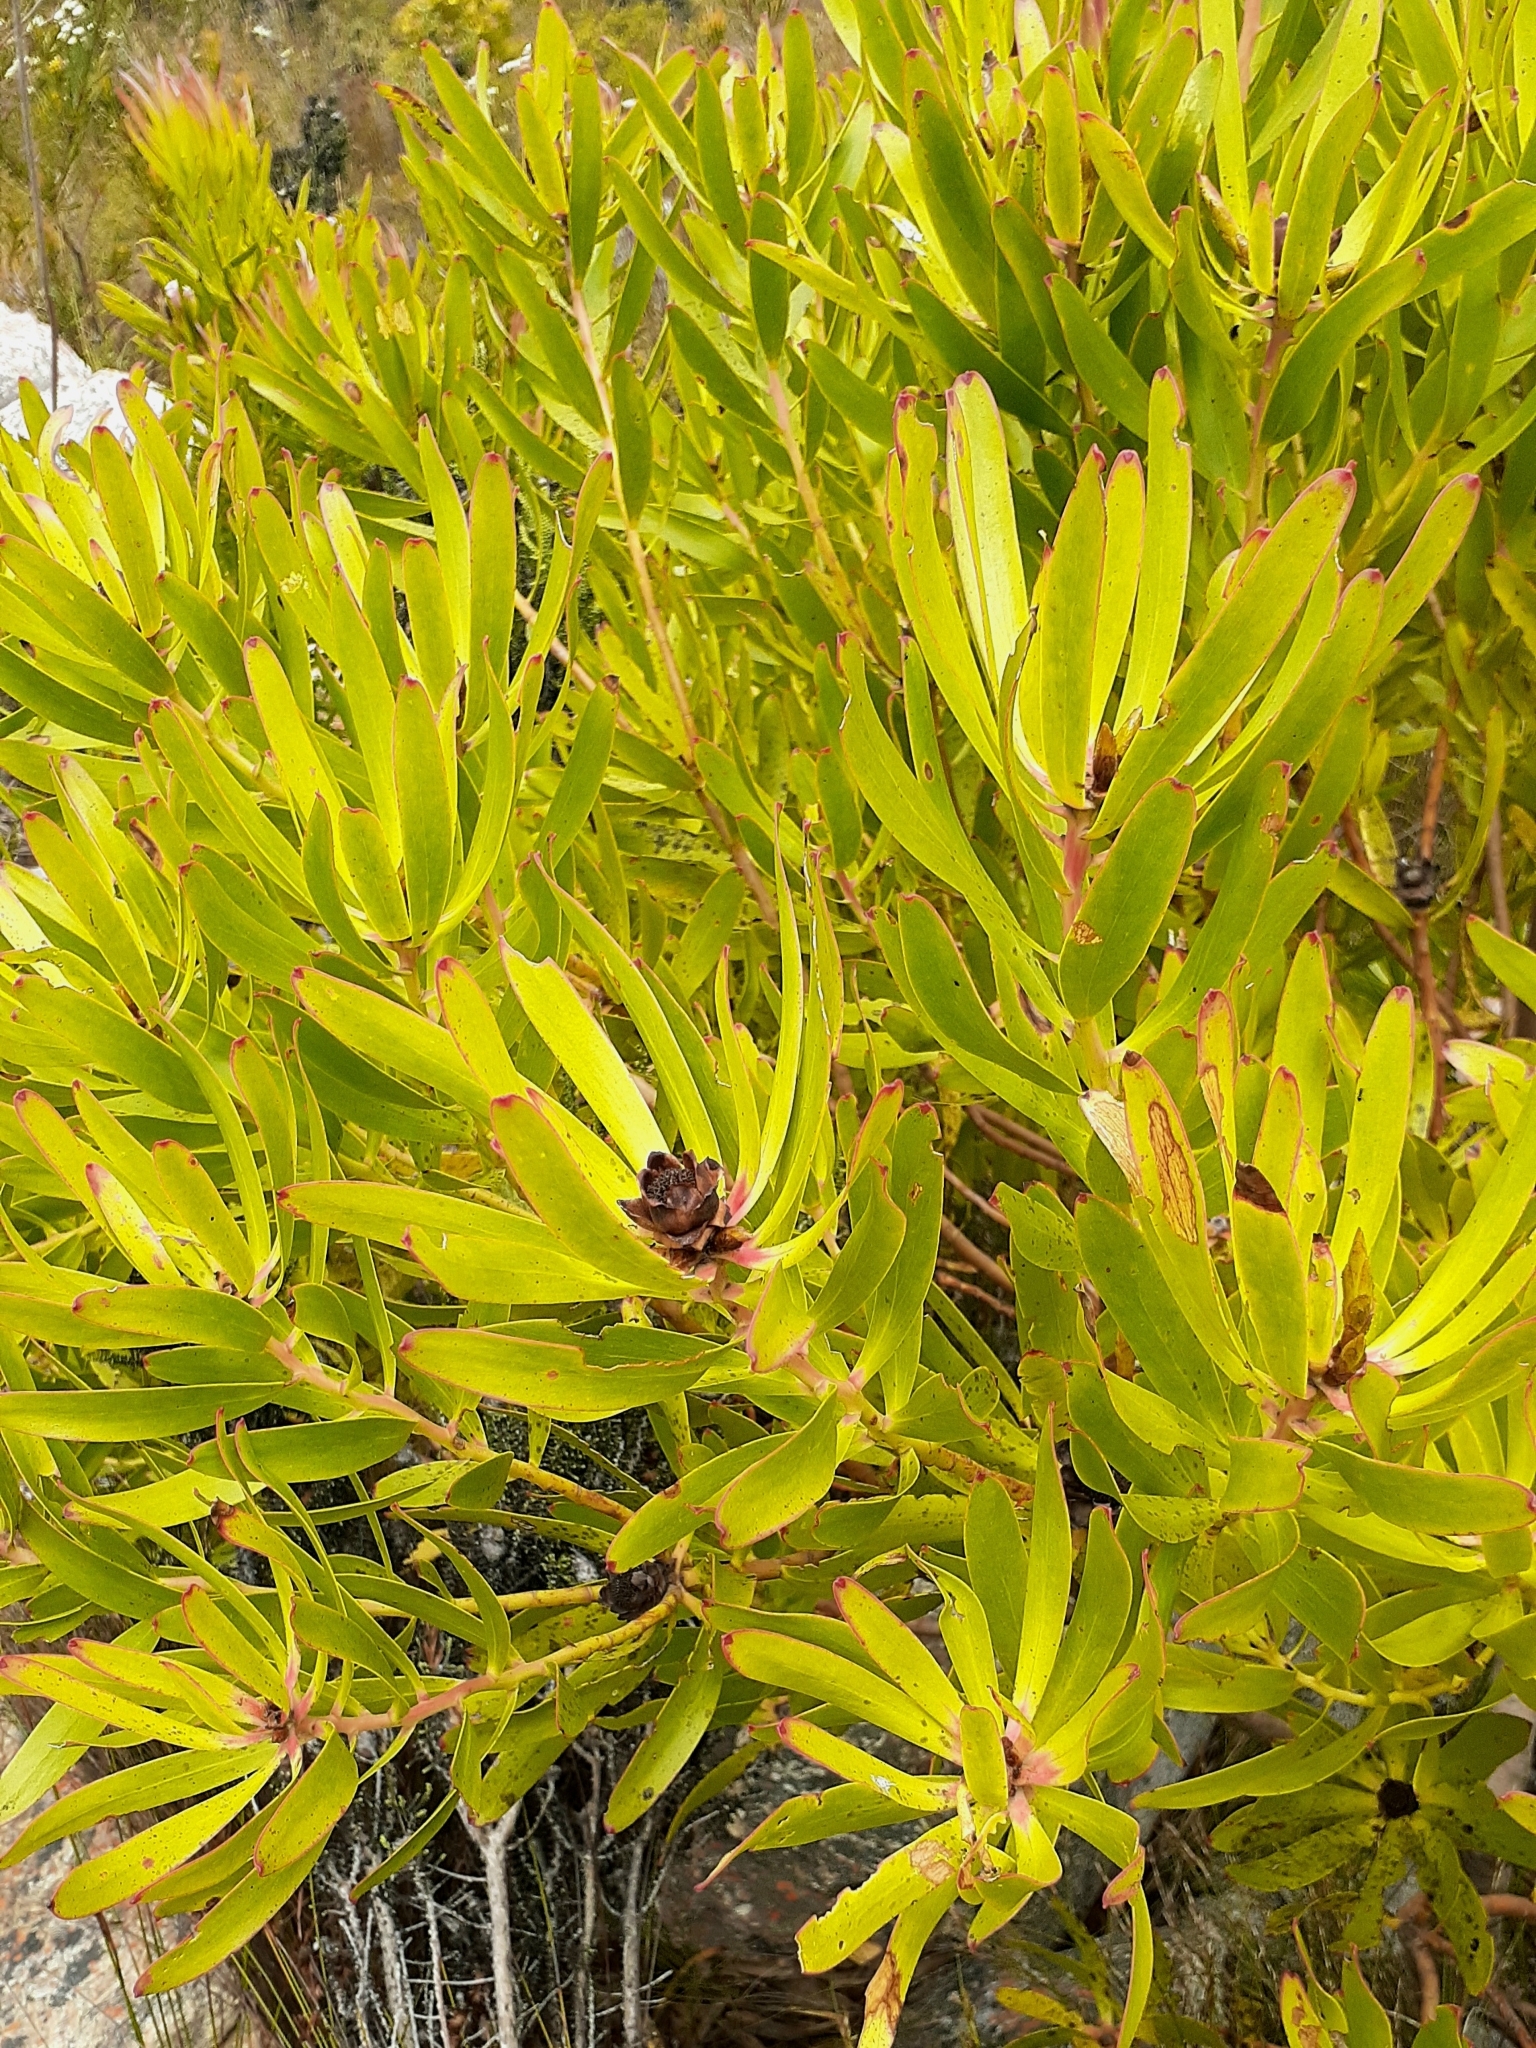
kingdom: Plantae
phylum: Tracheophyta
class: Magnoliopsida
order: Proteales
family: Proteaceae
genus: Leucadendron
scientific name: Leucadendron microcephalum
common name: Oilbract conebush
